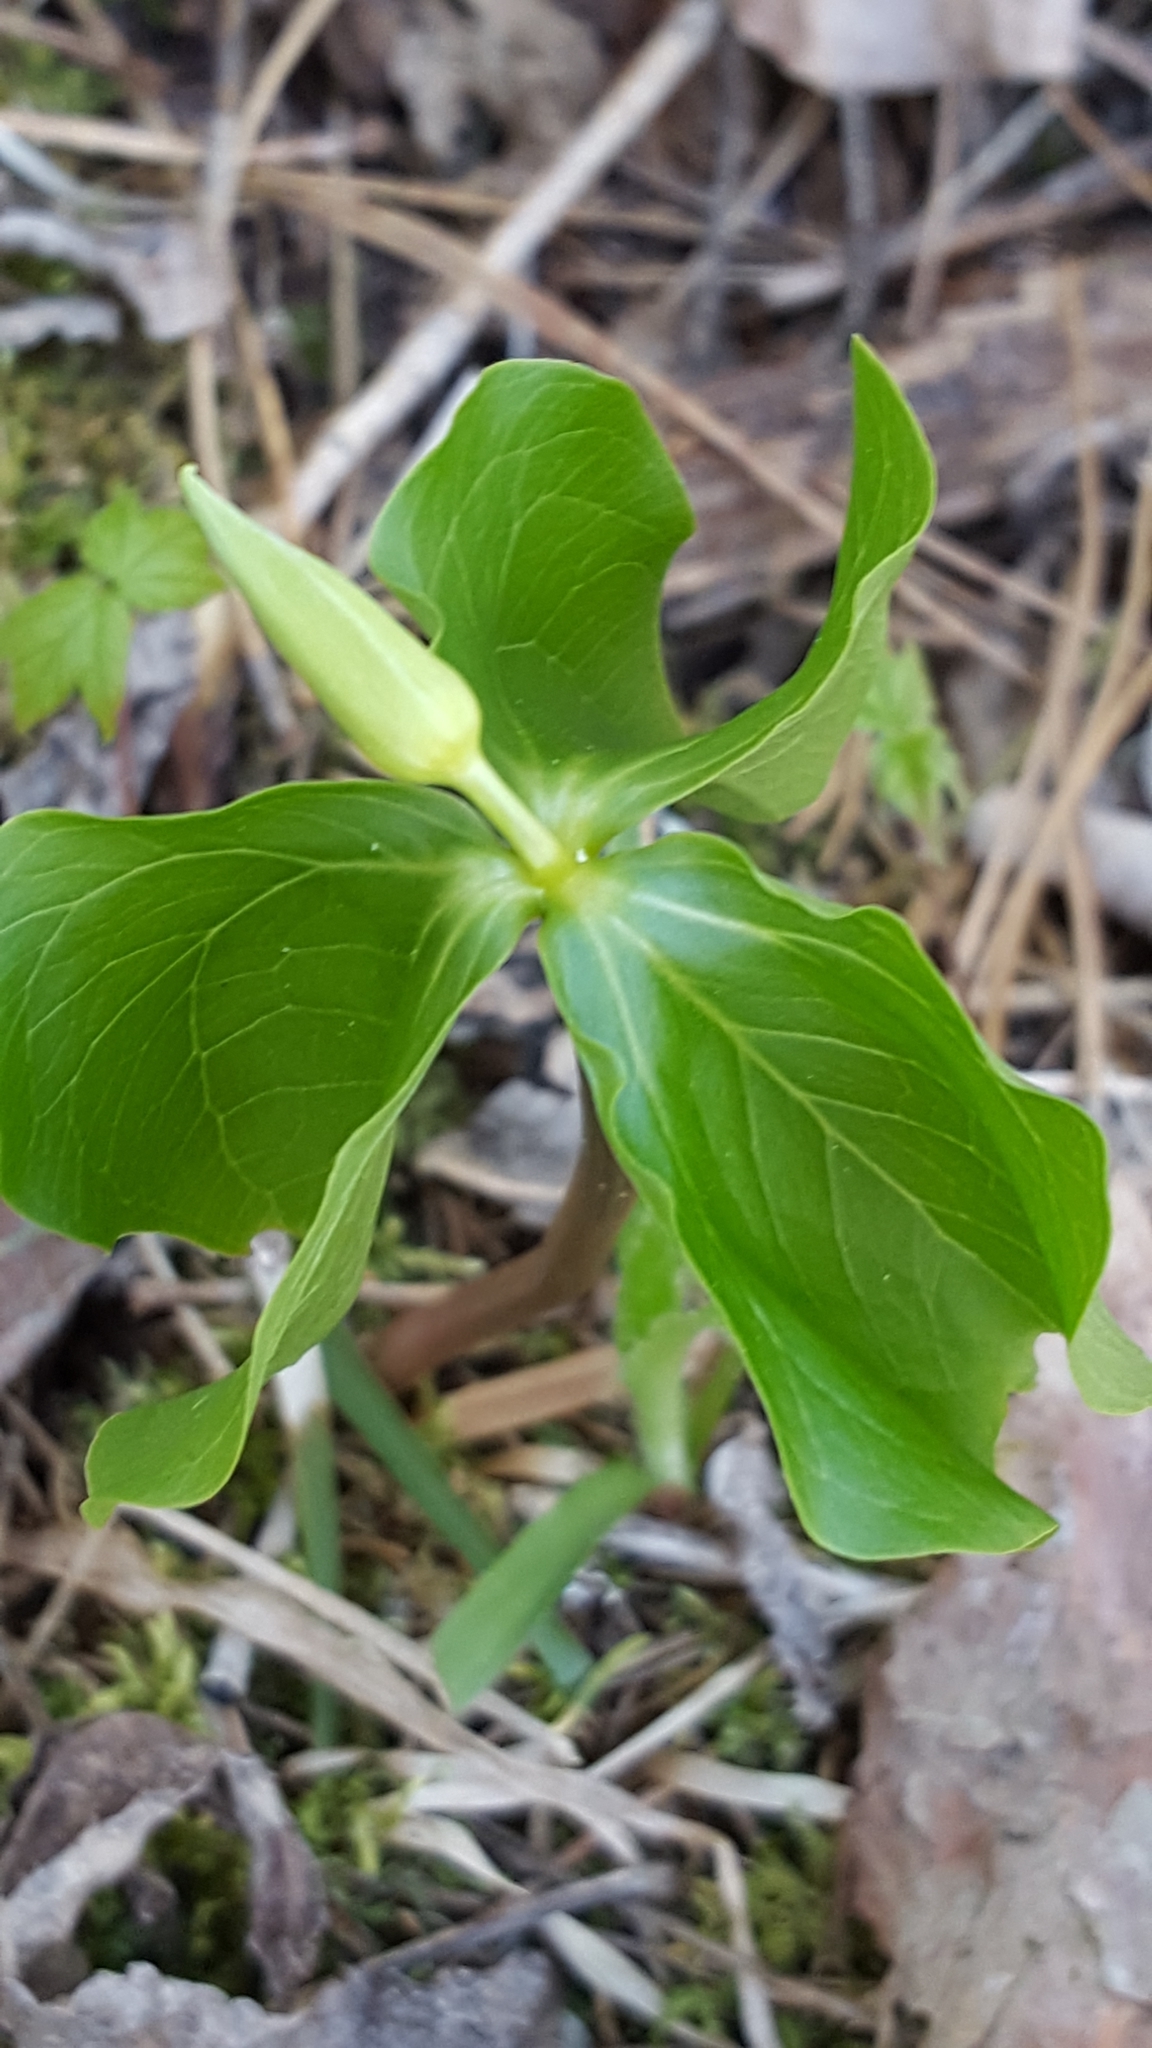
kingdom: Plantae
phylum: Tracheophyta
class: Liliopsida
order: Liliales
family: Melanthiaceae
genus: Trillium
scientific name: Trillium cernuum
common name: Nodding trillium
